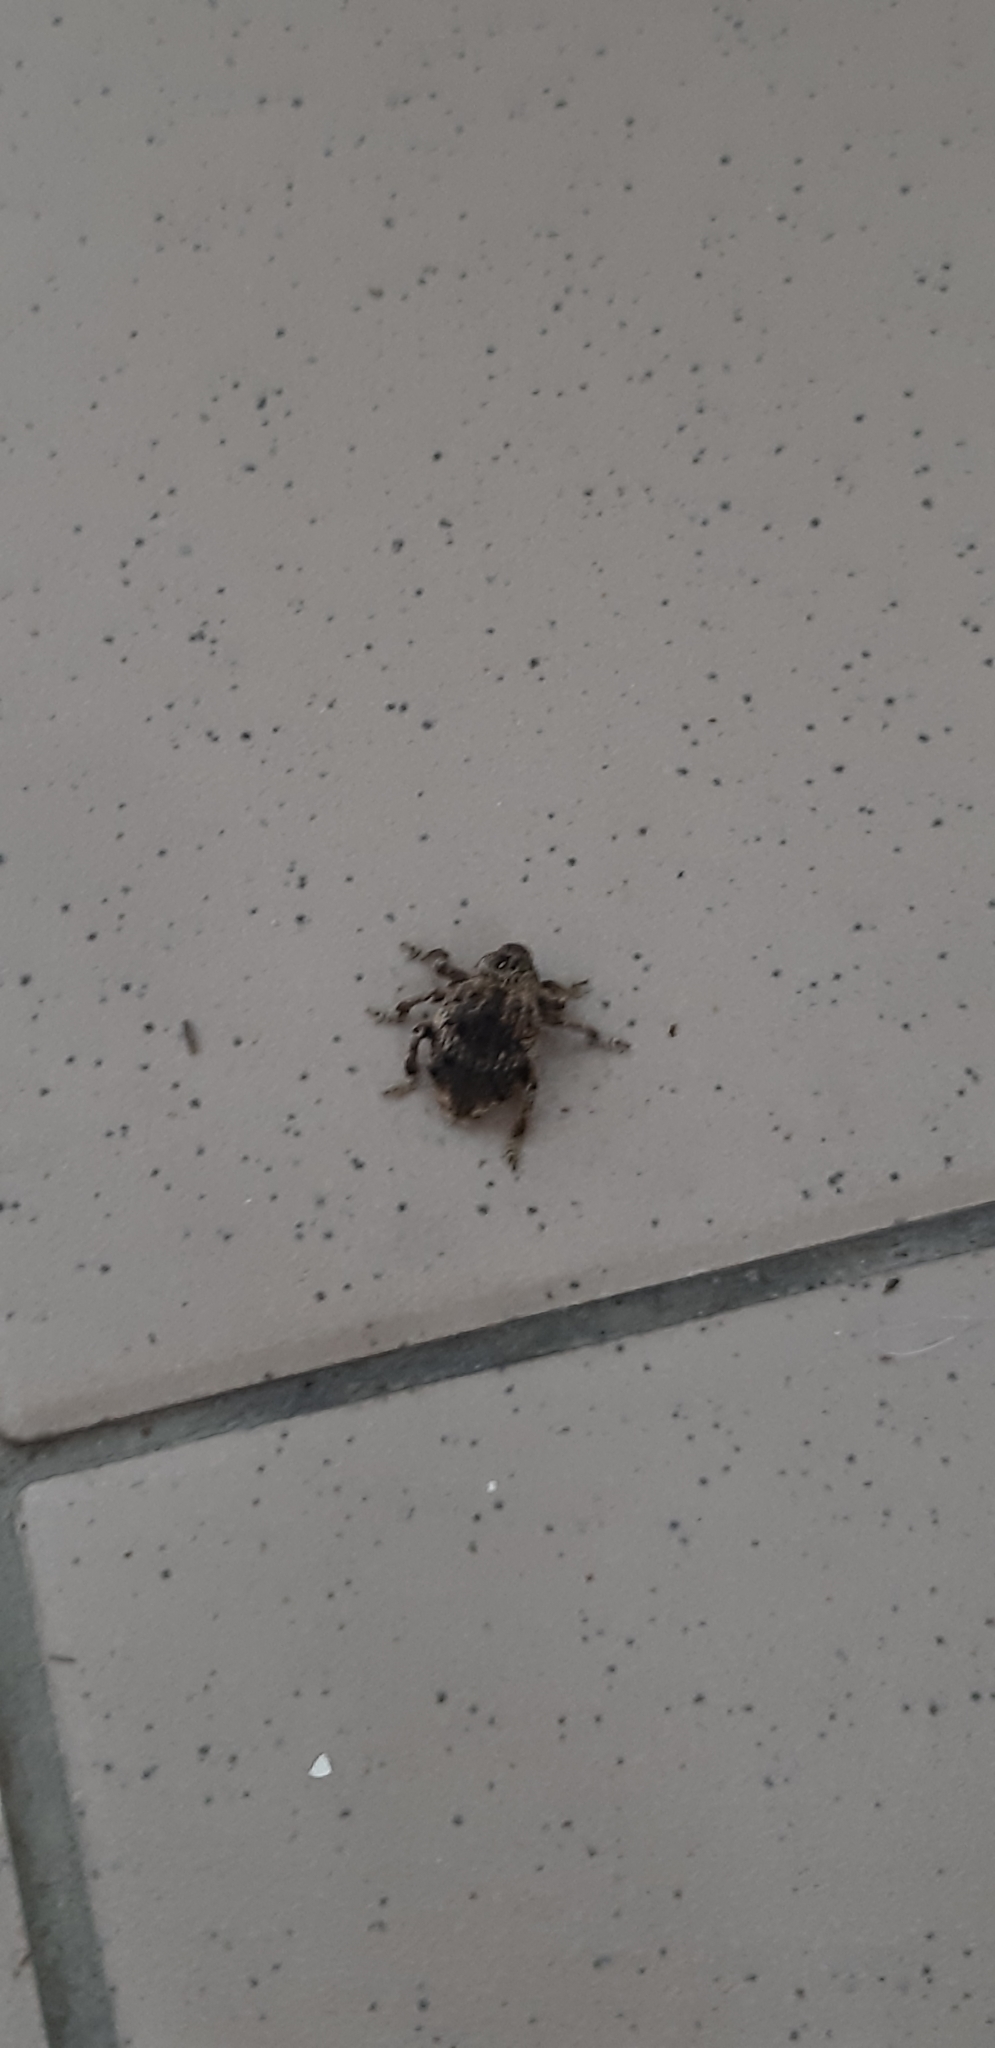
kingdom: Animalia
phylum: Arthropoda
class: Insecta
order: Coleoptera
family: Brachyceridae
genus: Desmidophorus
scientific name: Desmidophorus crassus
